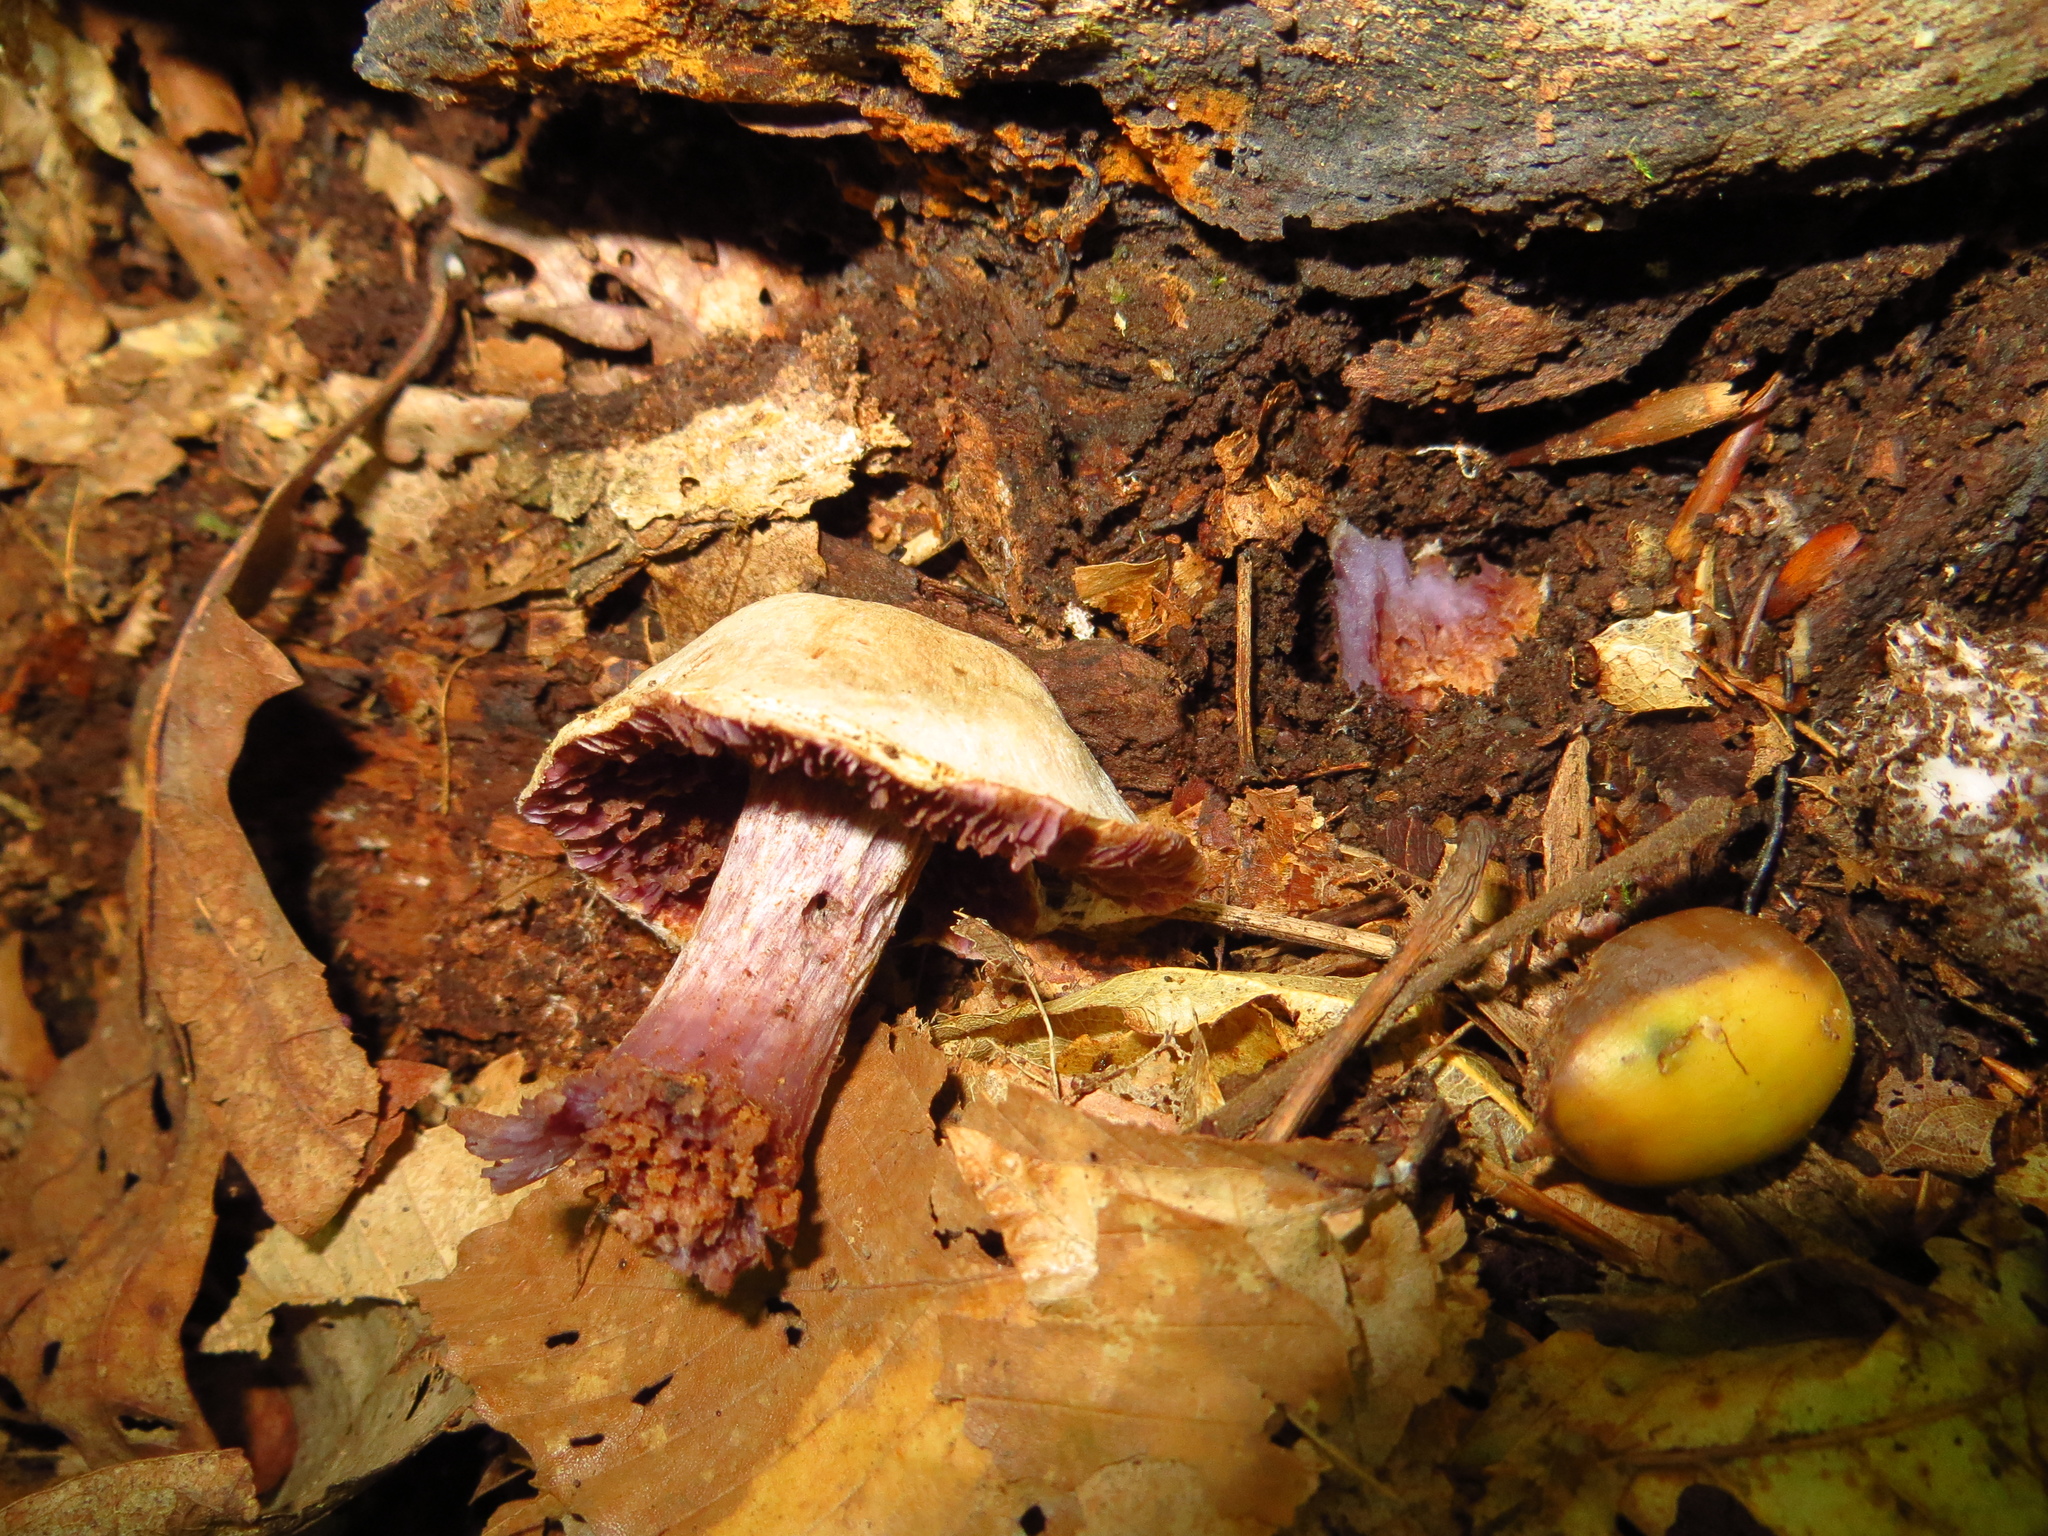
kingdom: Fungi
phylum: Basidiomycota
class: Agaricomycetes
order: Agaricales
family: Hydnangiaceae
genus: Laccaria
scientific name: Laccaria ochropurpurea
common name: Purple laccaria
